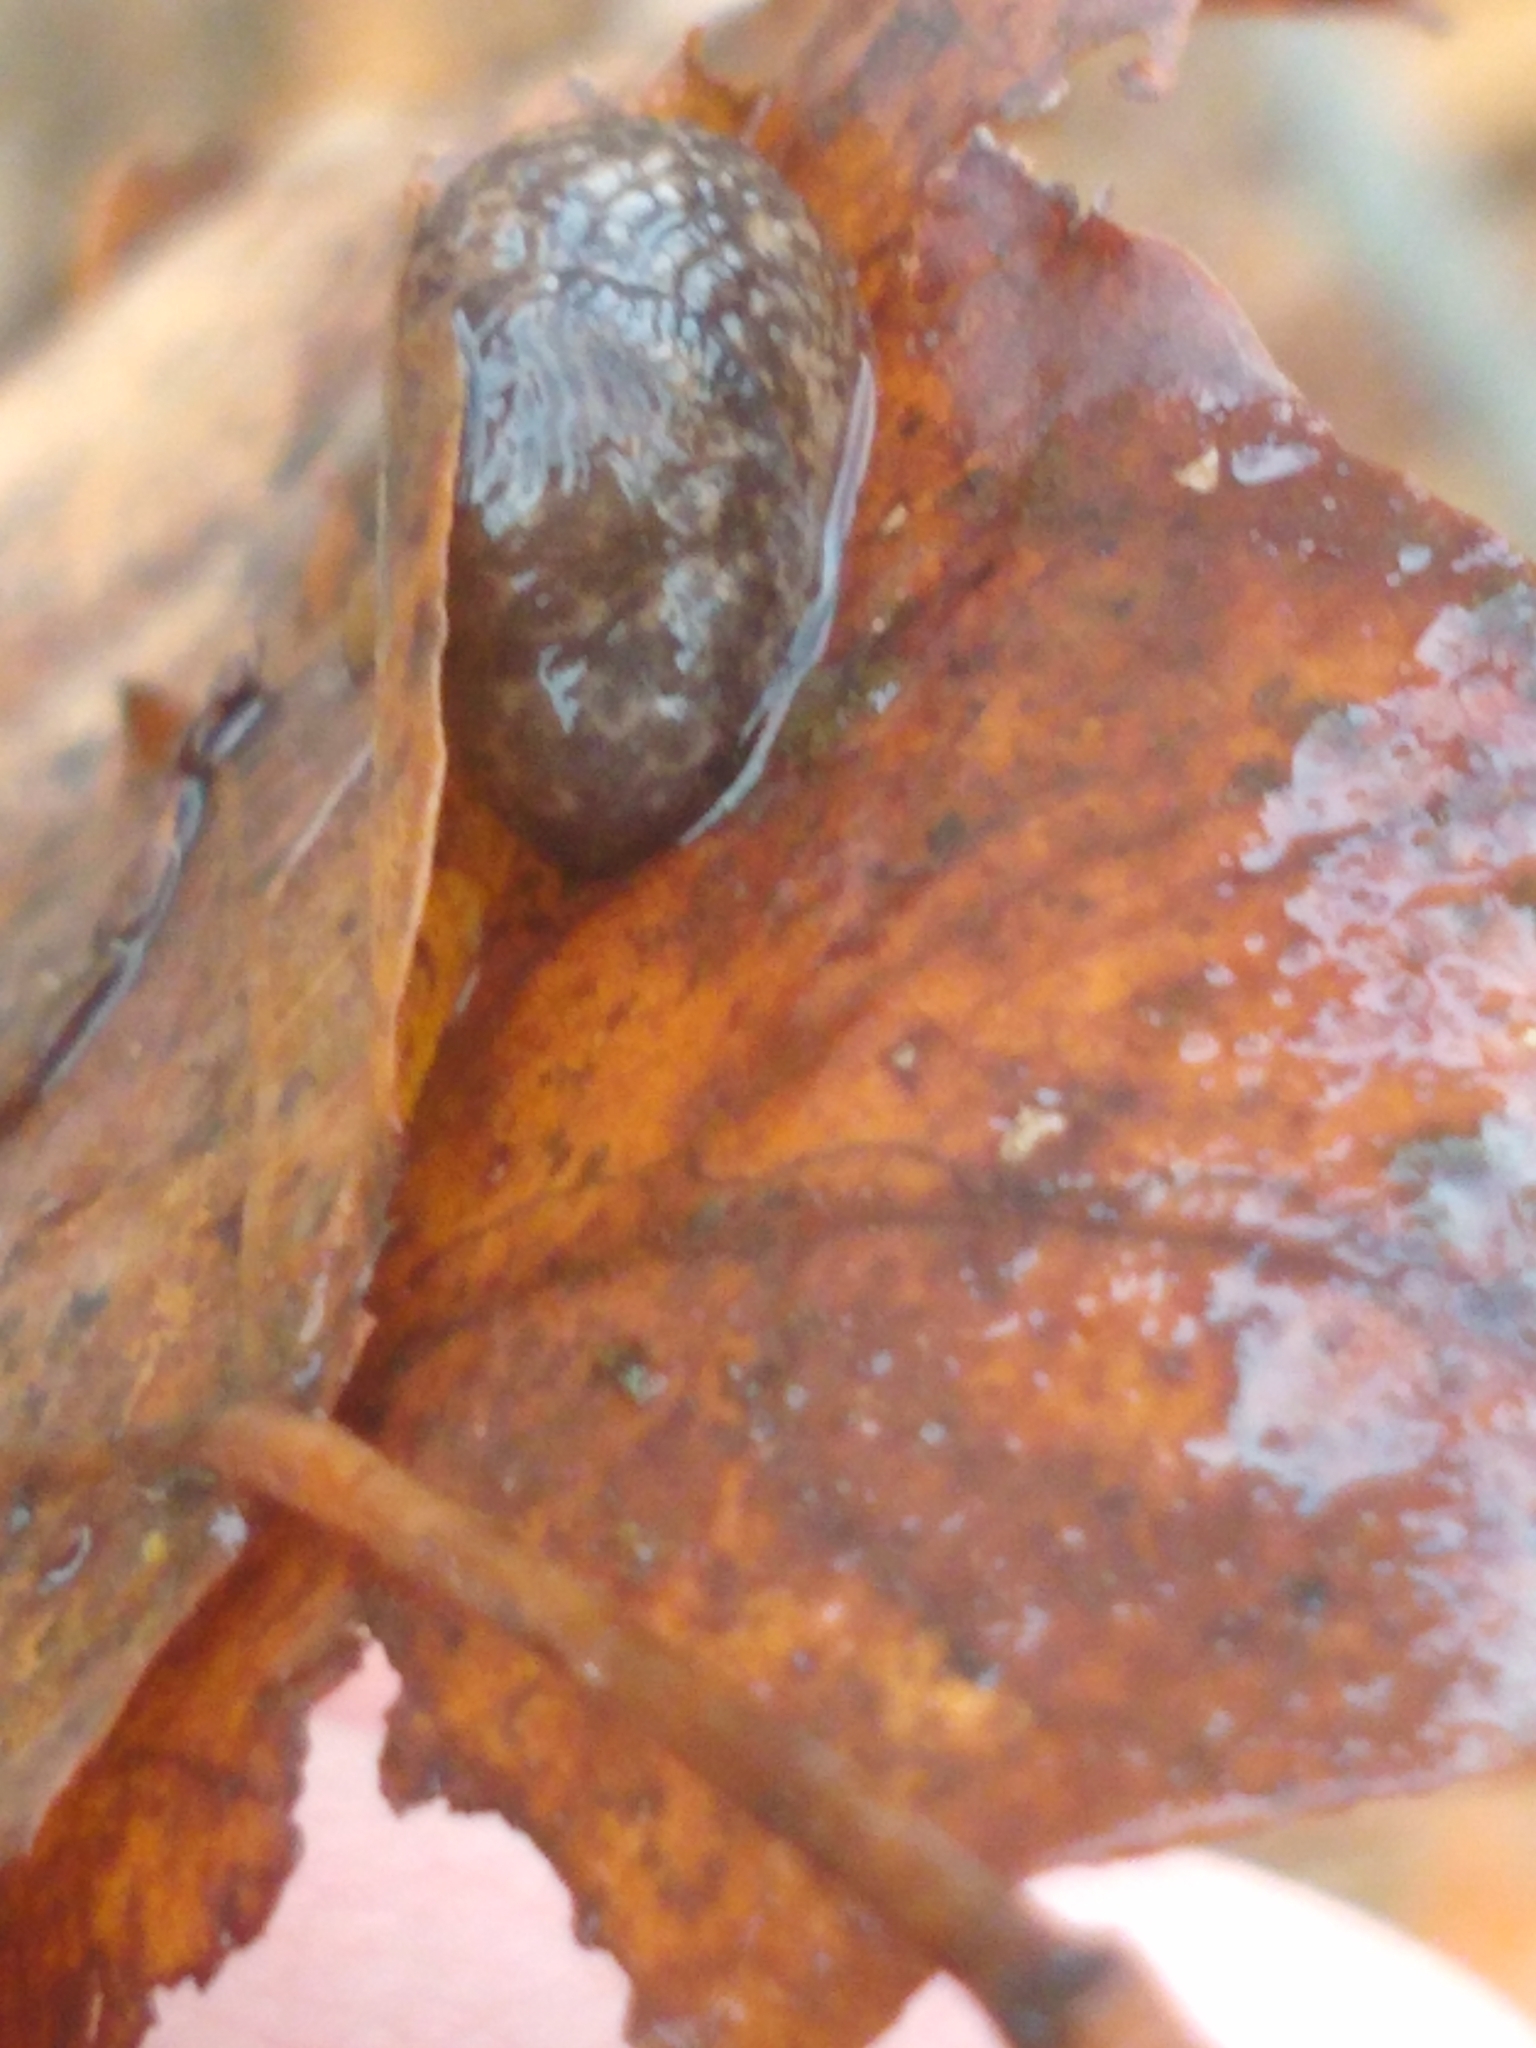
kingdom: Animalia
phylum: Mollusca
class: Gastropoda
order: Stylommatophora
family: Agriolimacidae
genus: Deroceras
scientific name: Deroceras reticulatum
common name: Gray field slug
